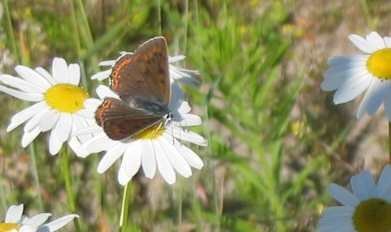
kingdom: Animalia
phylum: Arthropoda
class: Insecta
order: Lepidoptera
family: Lycaenidae
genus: Lycaena
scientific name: Lycaena alciphron
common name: Purple-shot copper
